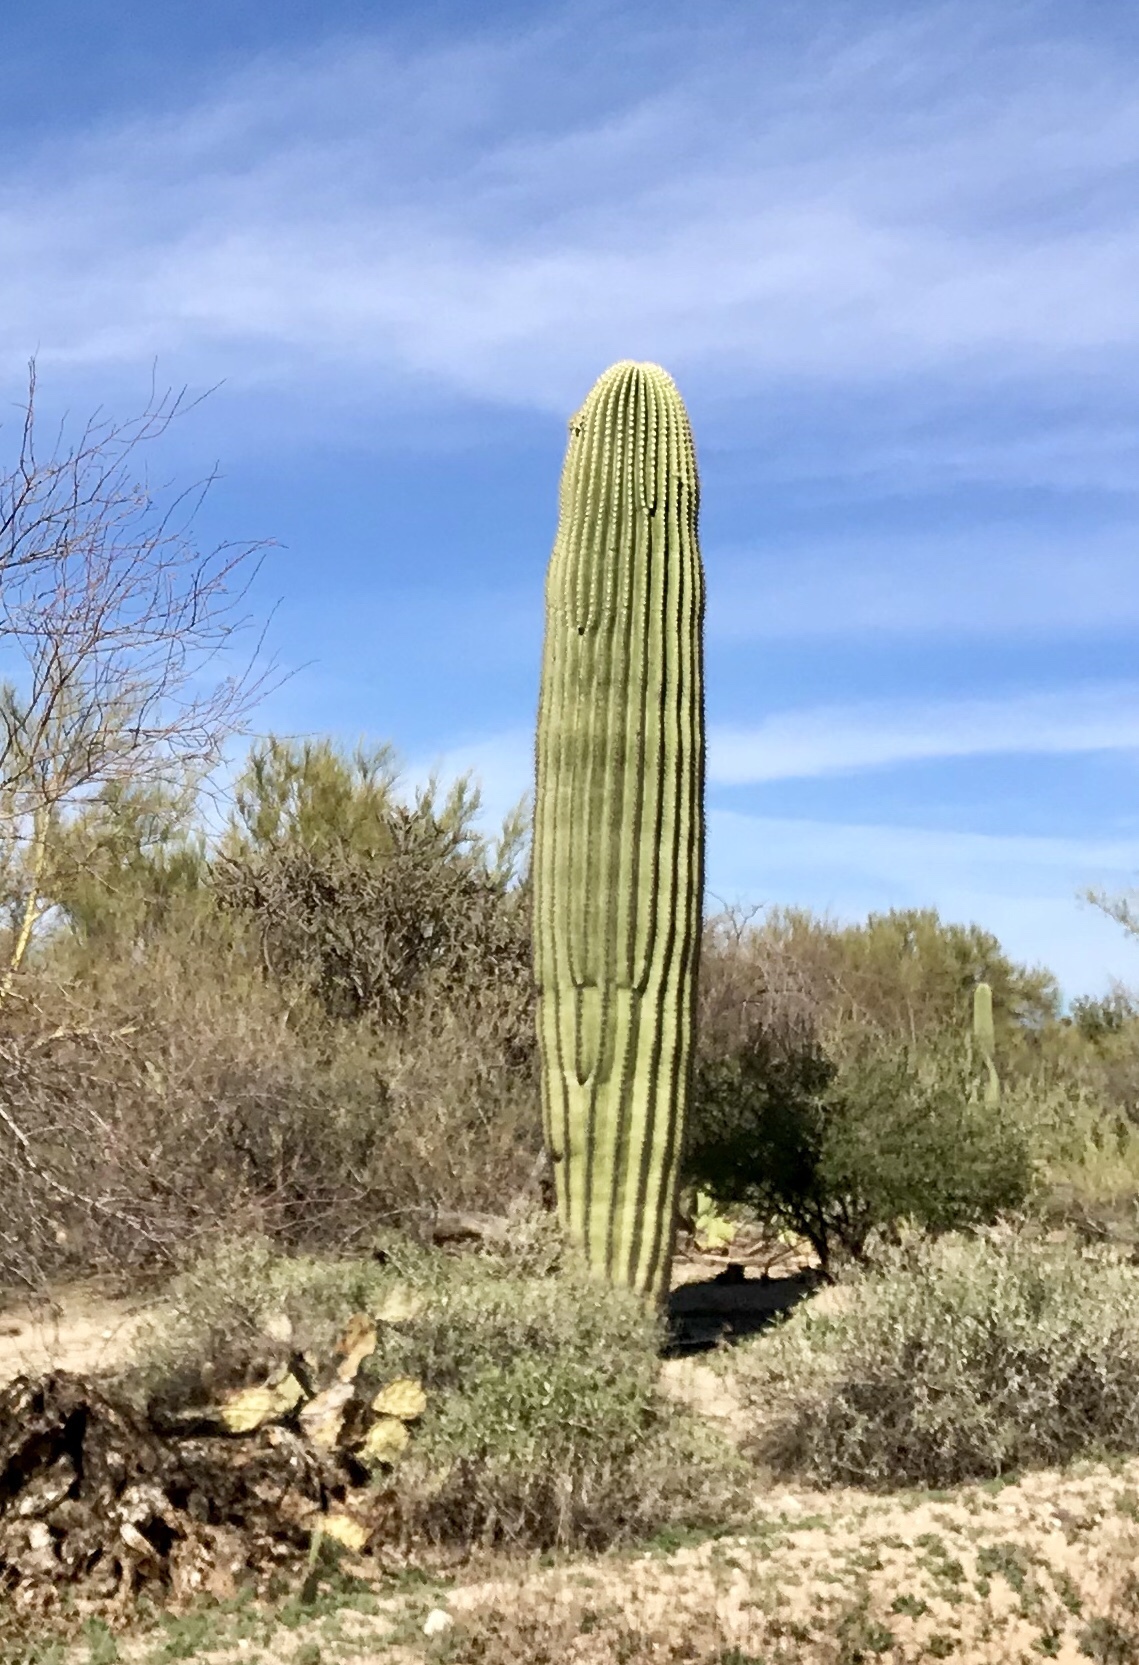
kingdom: Plantae
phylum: Tracheophyta
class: Magnoliopsida
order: Caryophyllales
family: Cactaceae
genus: Carnegiea
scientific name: Carnegiea gigantea
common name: Saguaro
